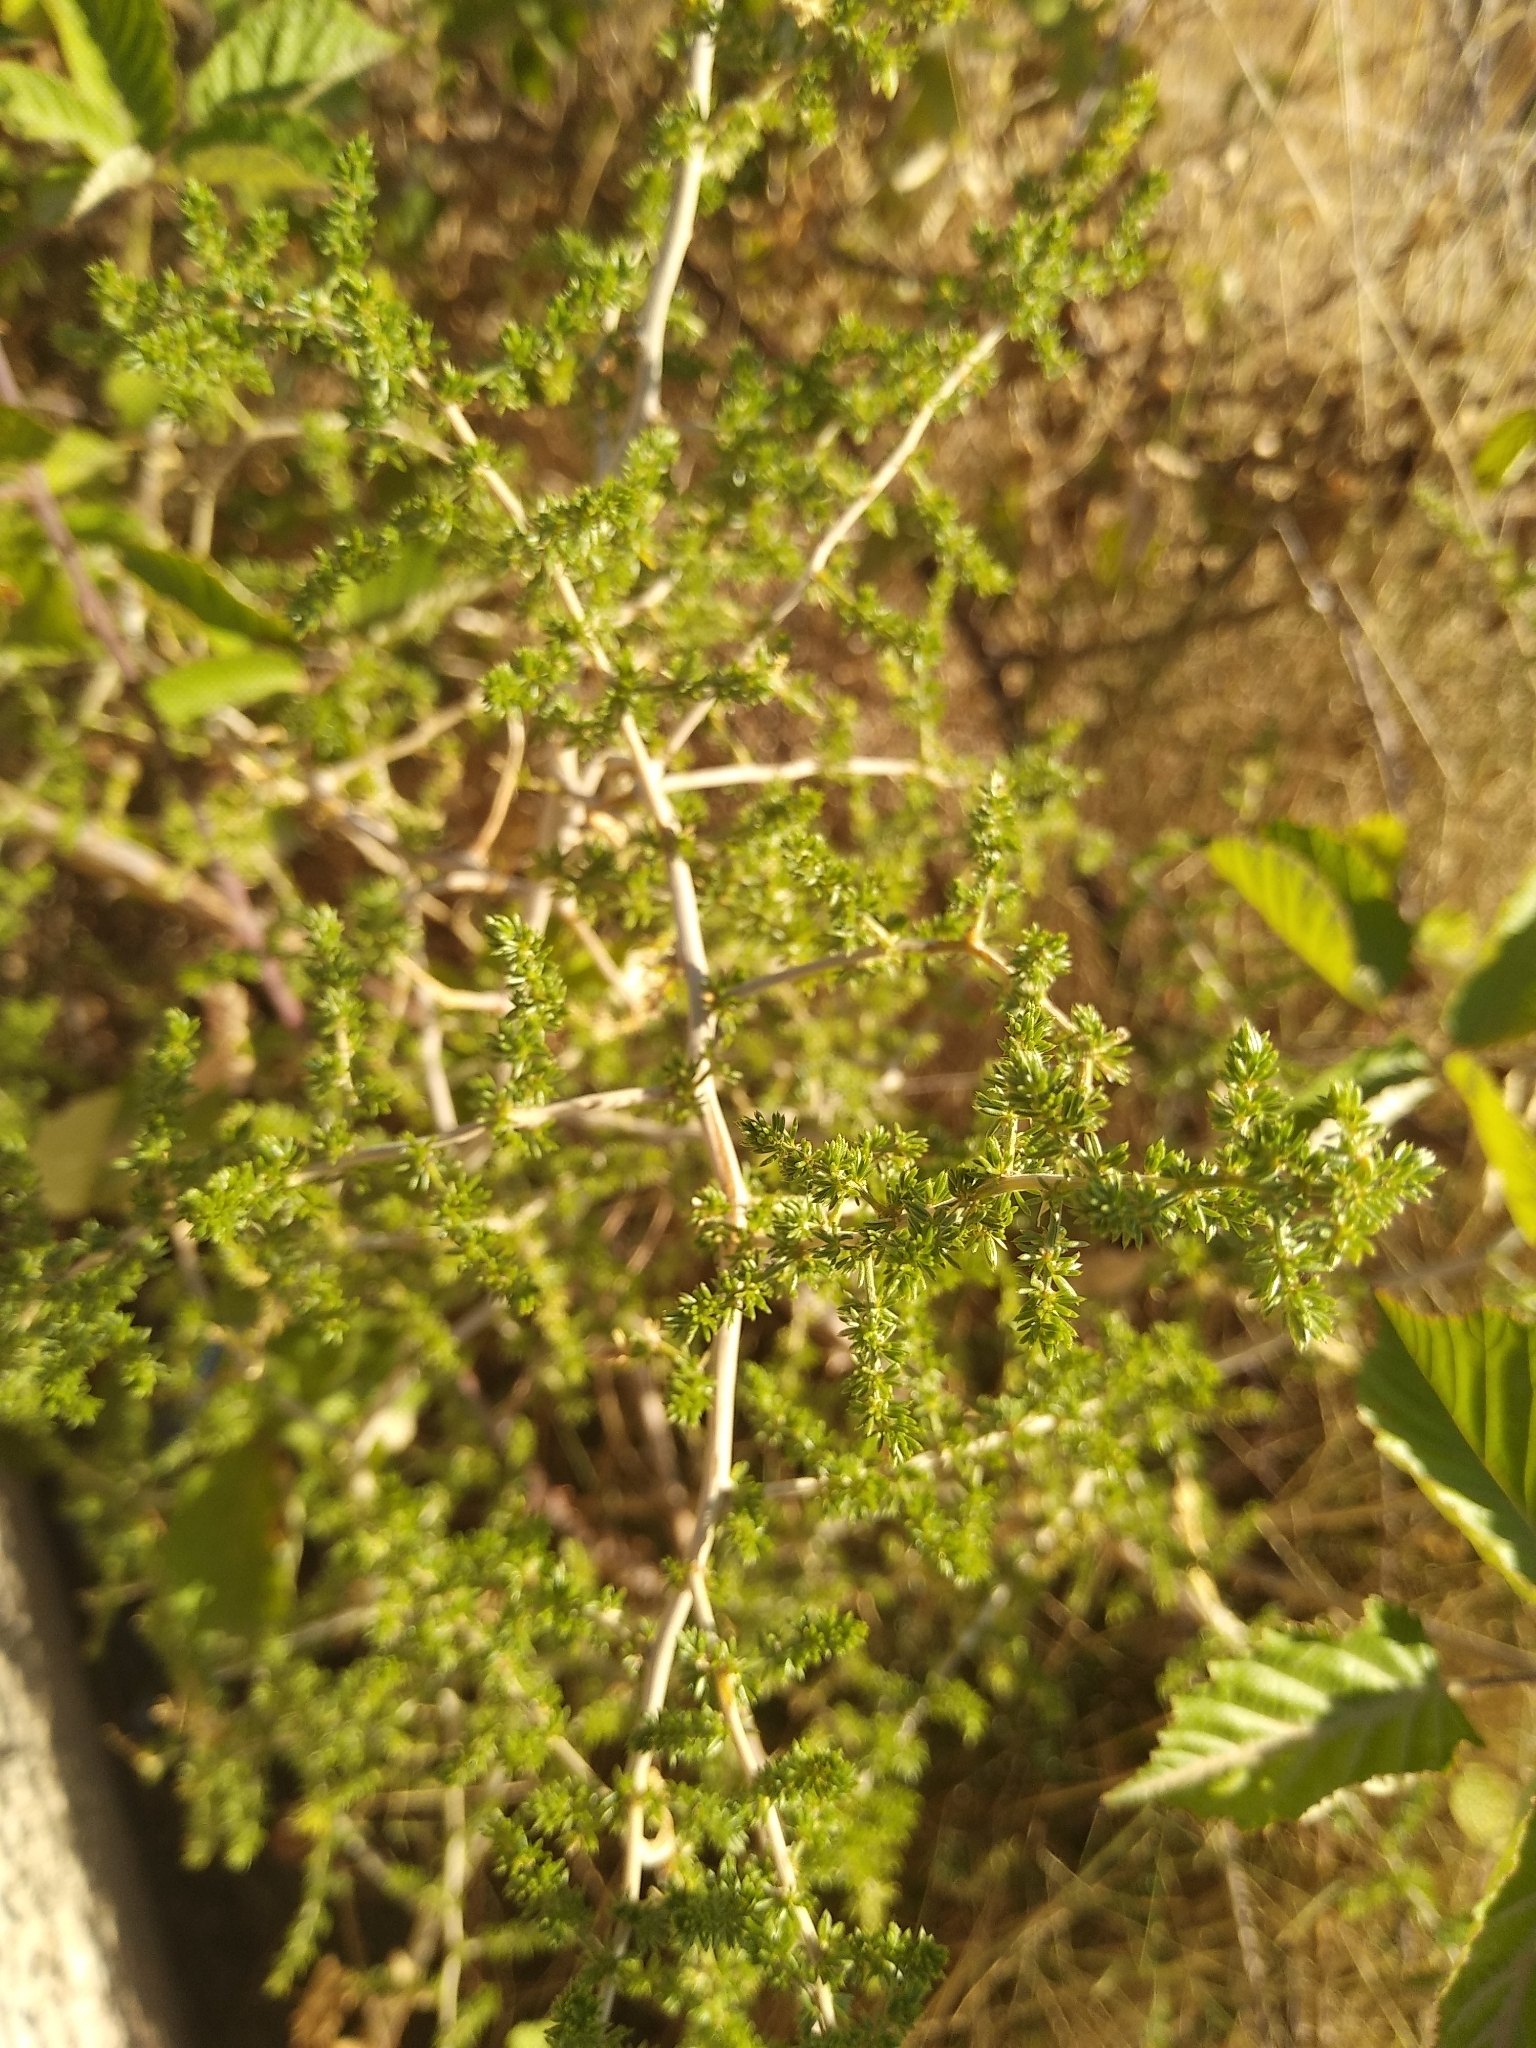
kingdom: Plantae
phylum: Tracheophyta
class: Liliopsida
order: Asparagales
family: Asparagaceae
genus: Asparagus
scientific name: Asparagus acutifolius
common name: Wild asparagus
